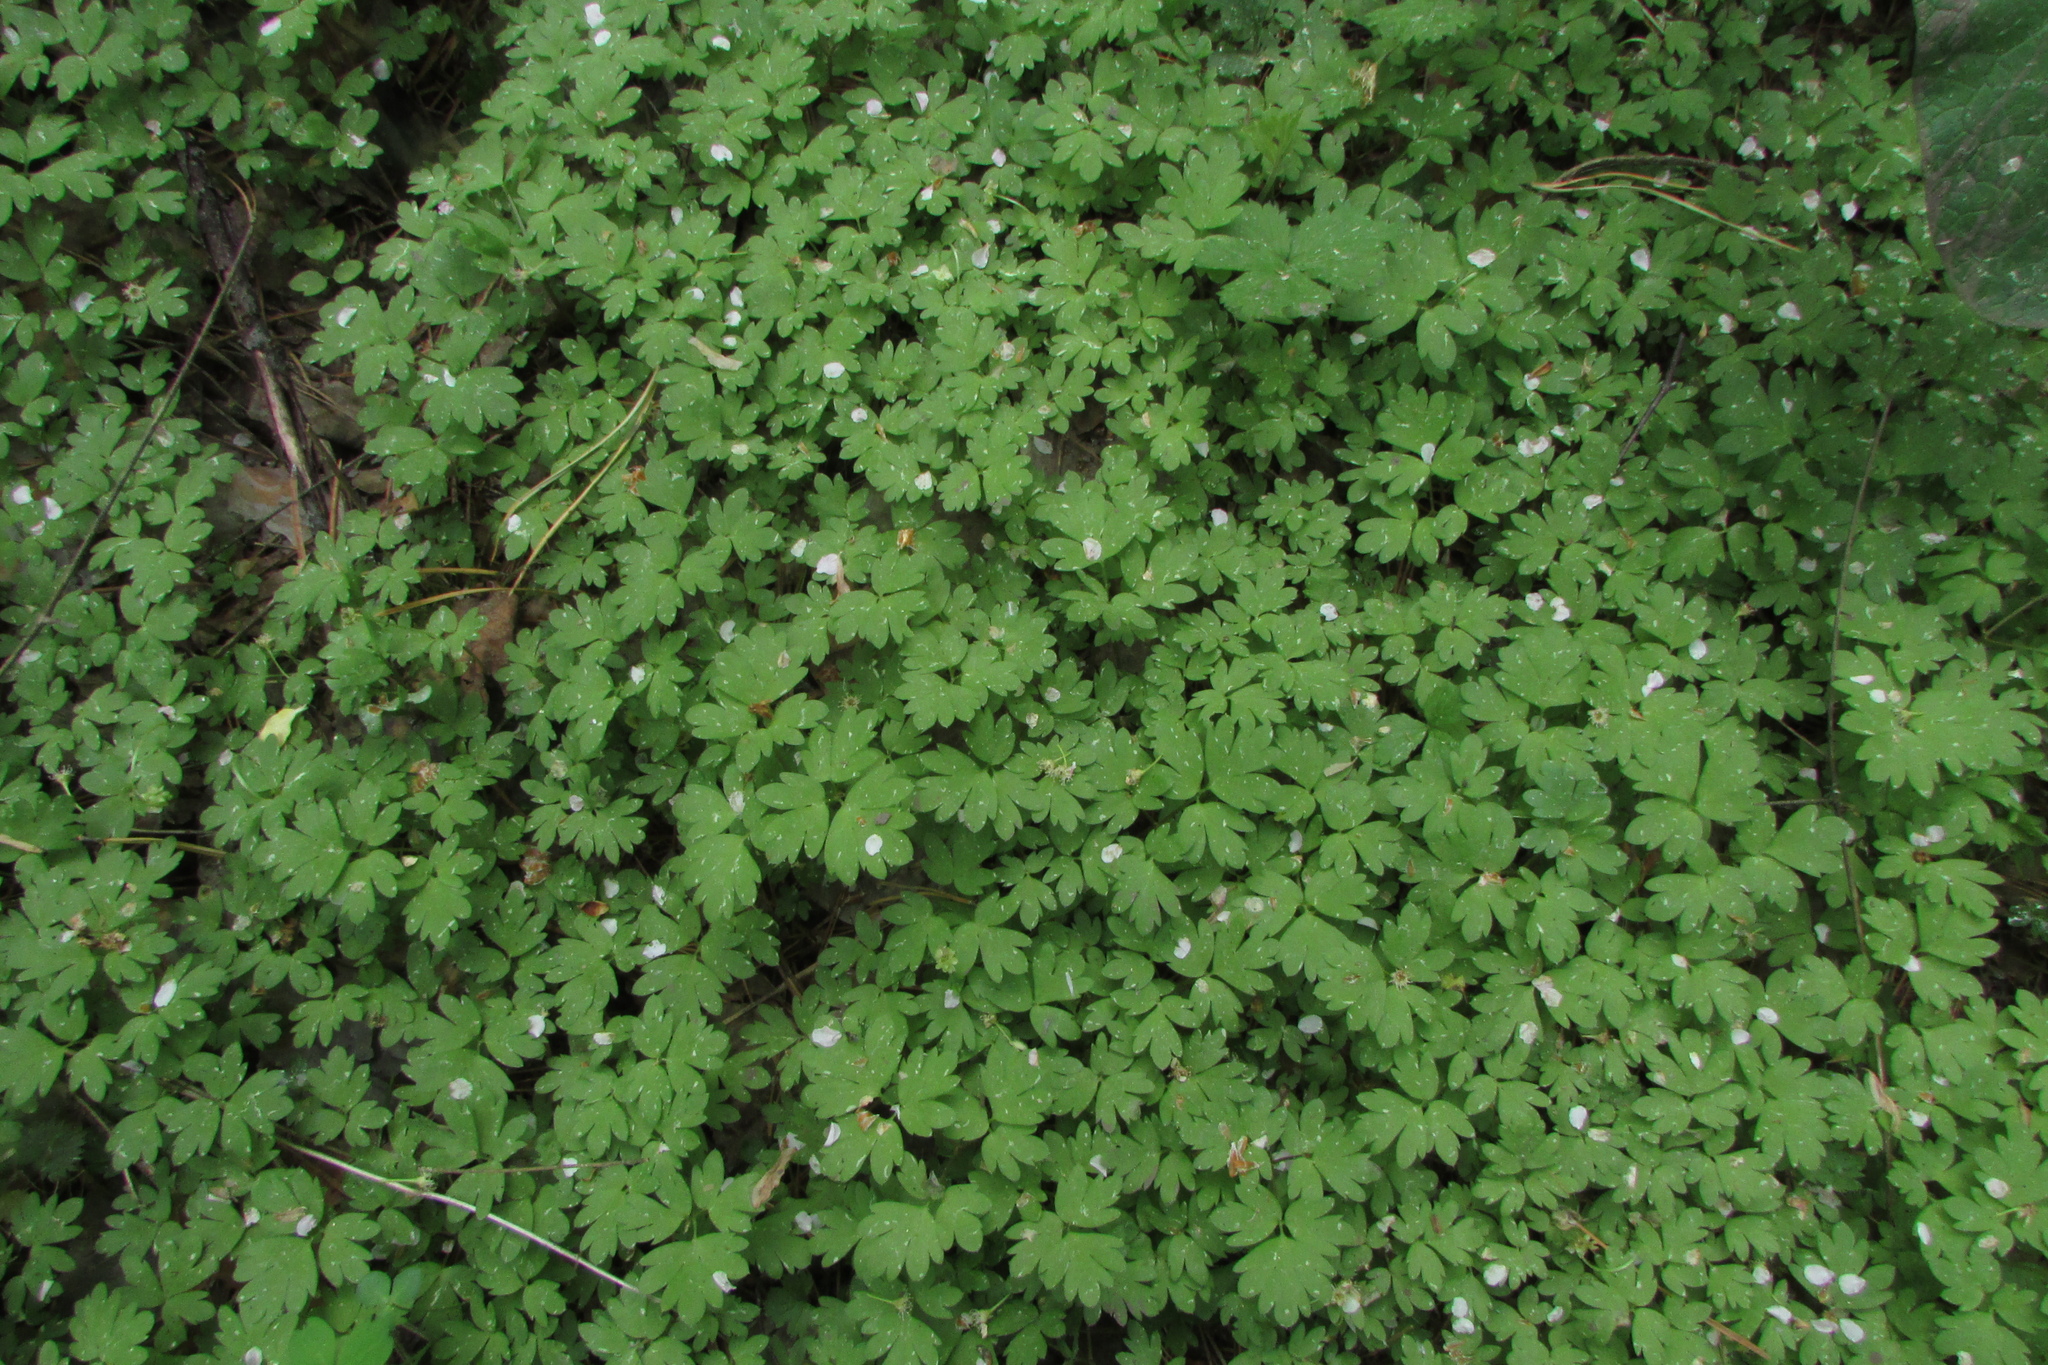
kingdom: Plantae
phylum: Tracheophyta
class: Magnoliopsida
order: Dipsacales
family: Viburnaceae
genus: Adoxa
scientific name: Adoxa moschatellina
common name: Moschatel
